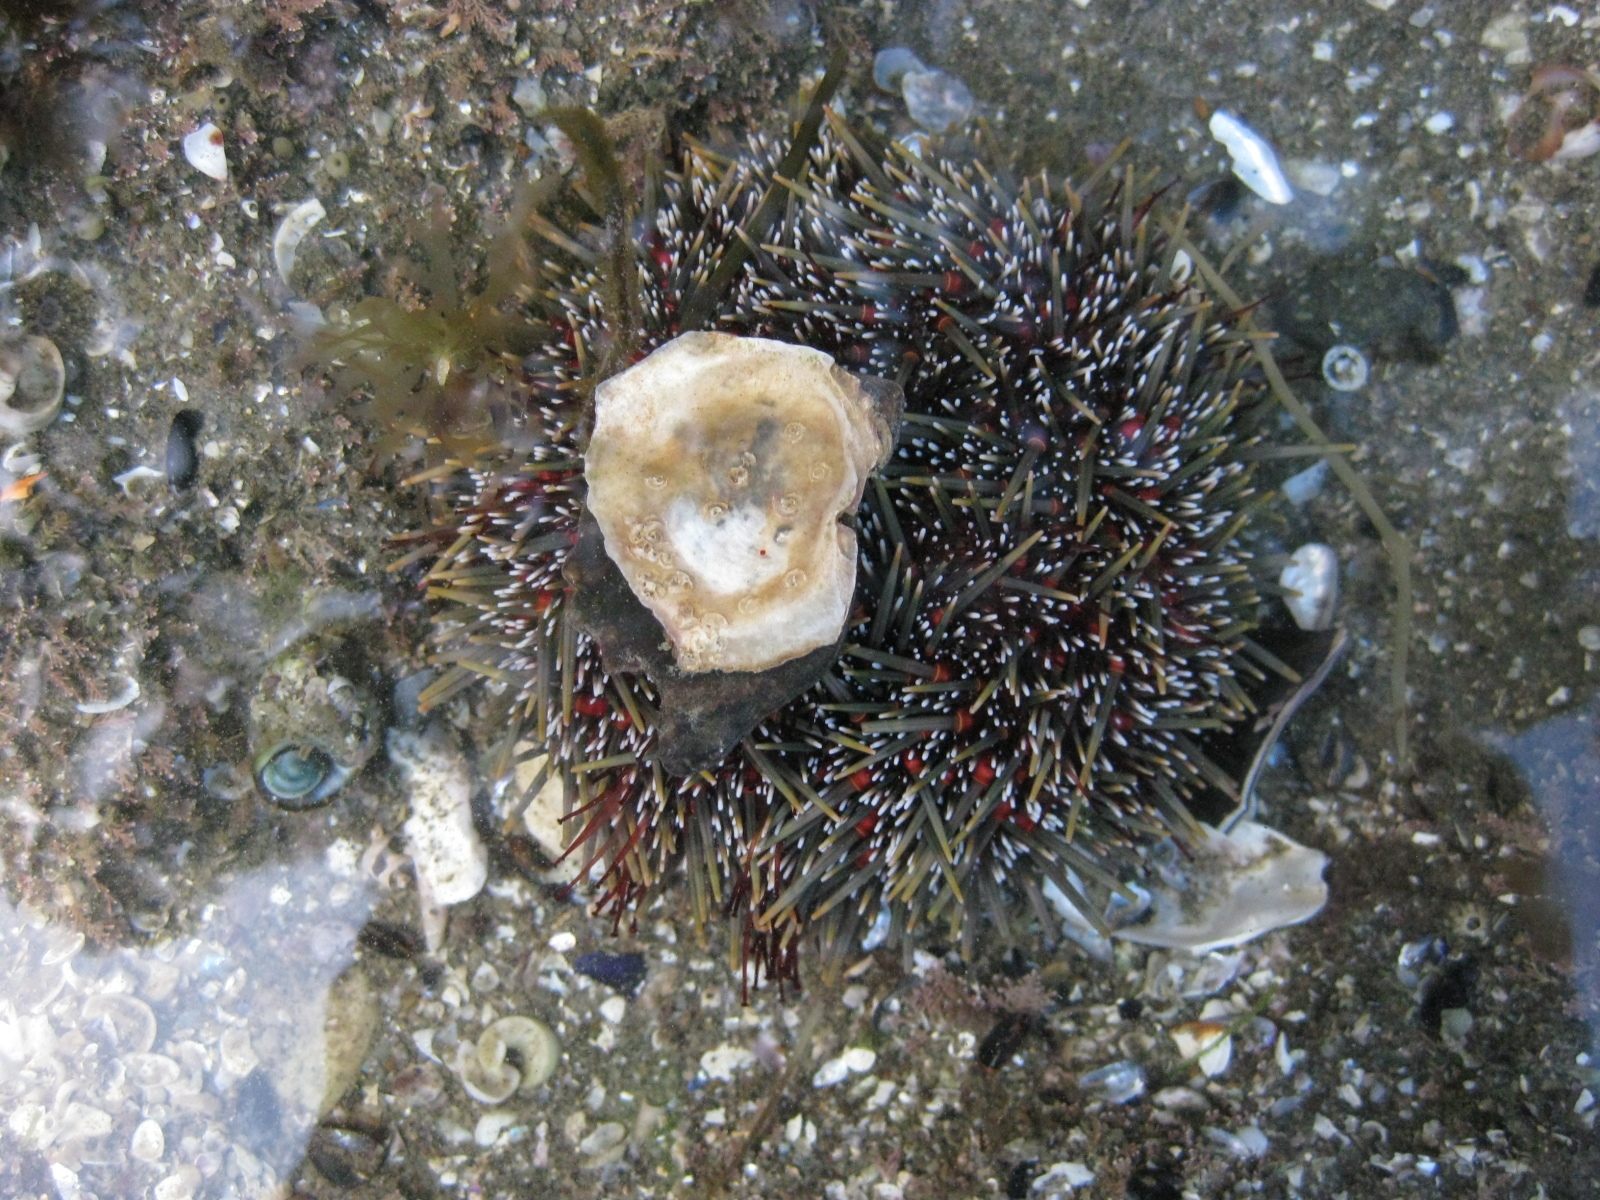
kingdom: Animalia
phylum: Echinodermata
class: Echinoidea
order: Camarodonta
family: Echinometridae
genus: Evechinus
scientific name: Evechinus chloroticus
